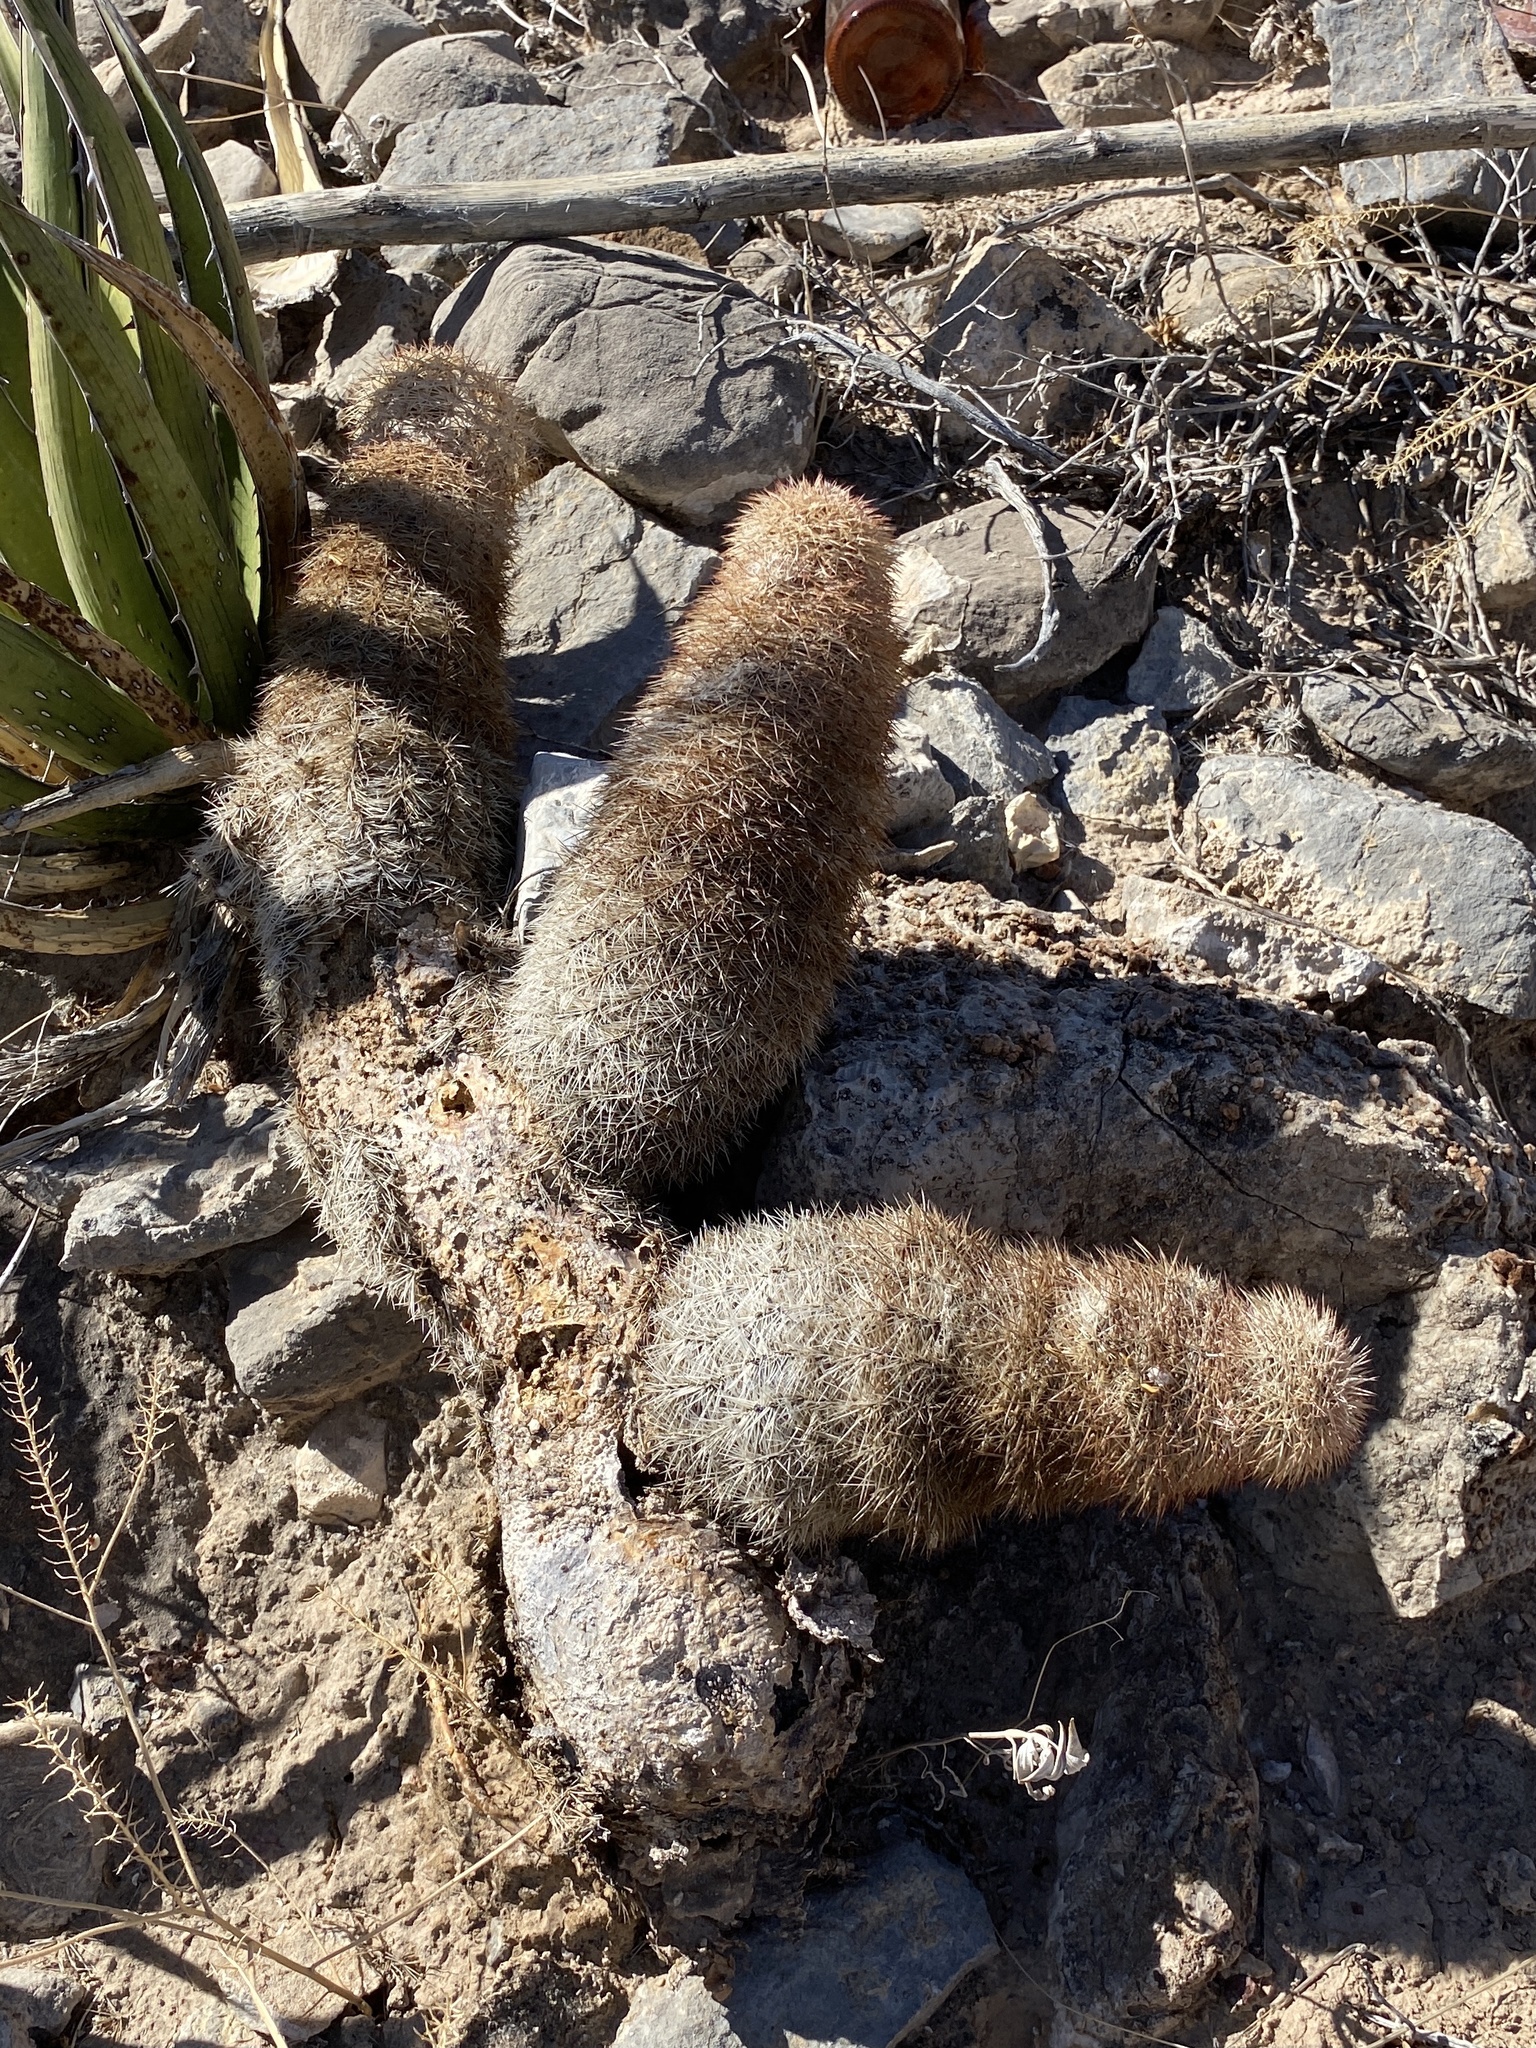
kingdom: Plantae
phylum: Tracheophyta
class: Magnoliopsida
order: Caryophyllales
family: Cactaceae
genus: Echinocereus
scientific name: Echinocereus dasyacanthus
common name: Spiny hedgehog cactus
